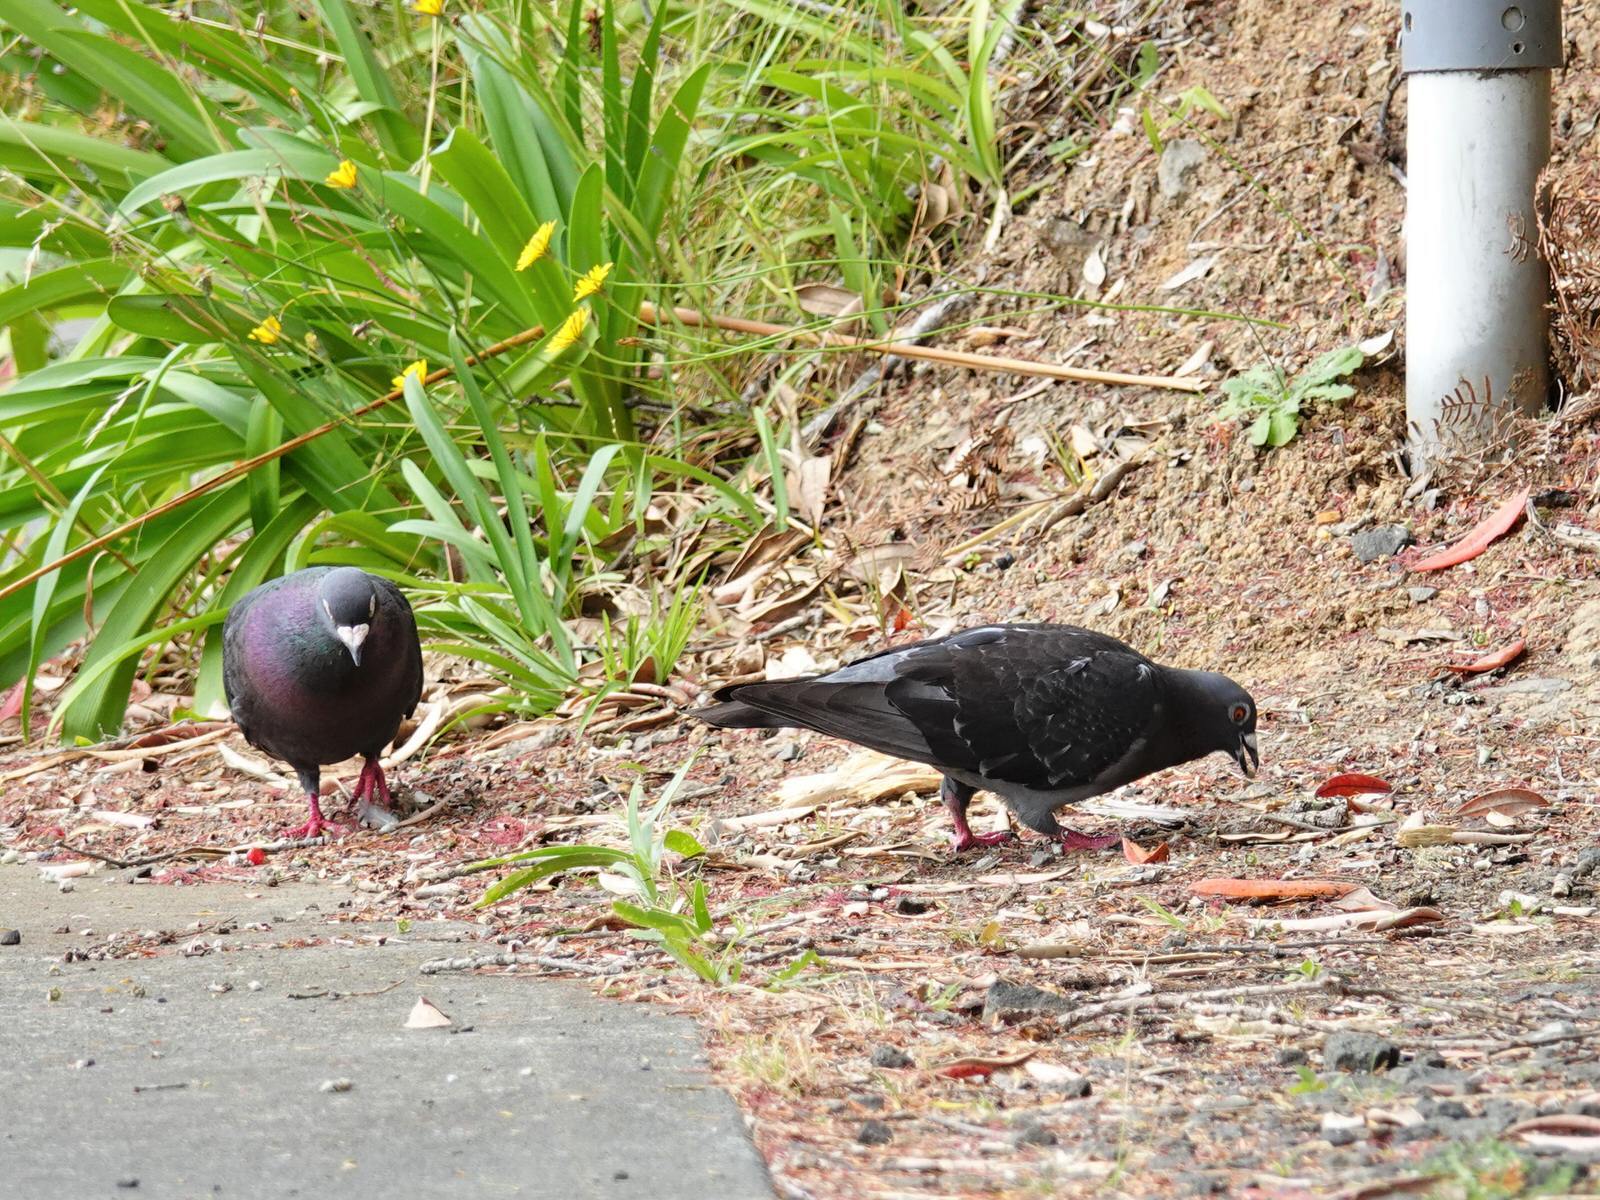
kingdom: Animalia
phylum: Chordata
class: Aves
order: Columbiformes
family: Columbidae
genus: Columba
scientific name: Columba livia
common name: Rock pigeon
